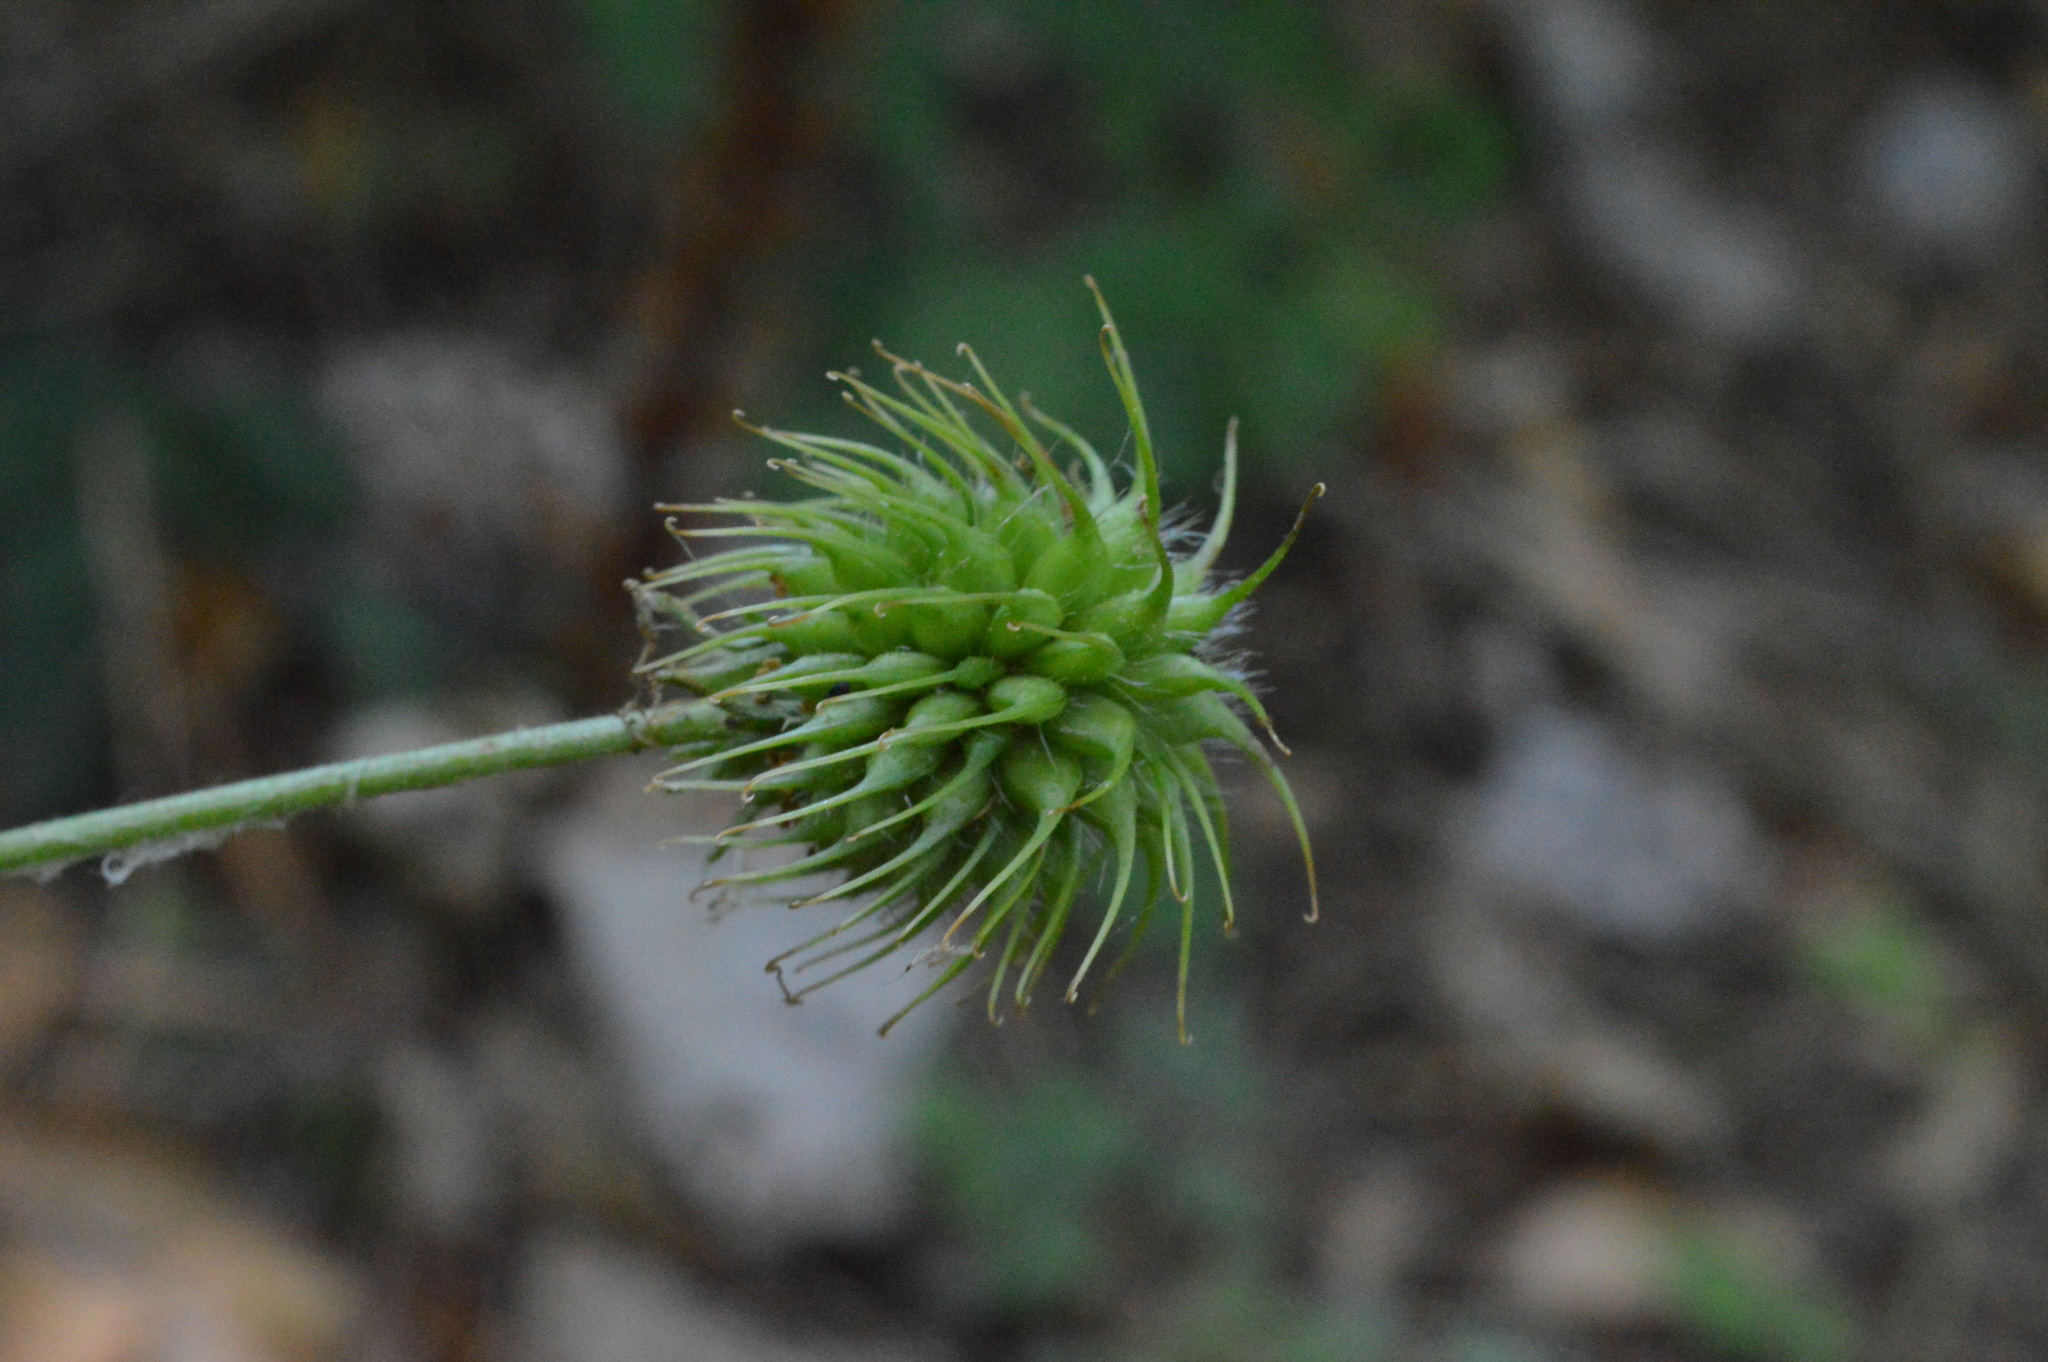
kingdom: Plantae
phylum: Tracheophyta
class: Magnoliopsida
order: Rosales
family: Rosaceae
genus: Geum
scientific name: Geum urbanum
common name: Wood avens
